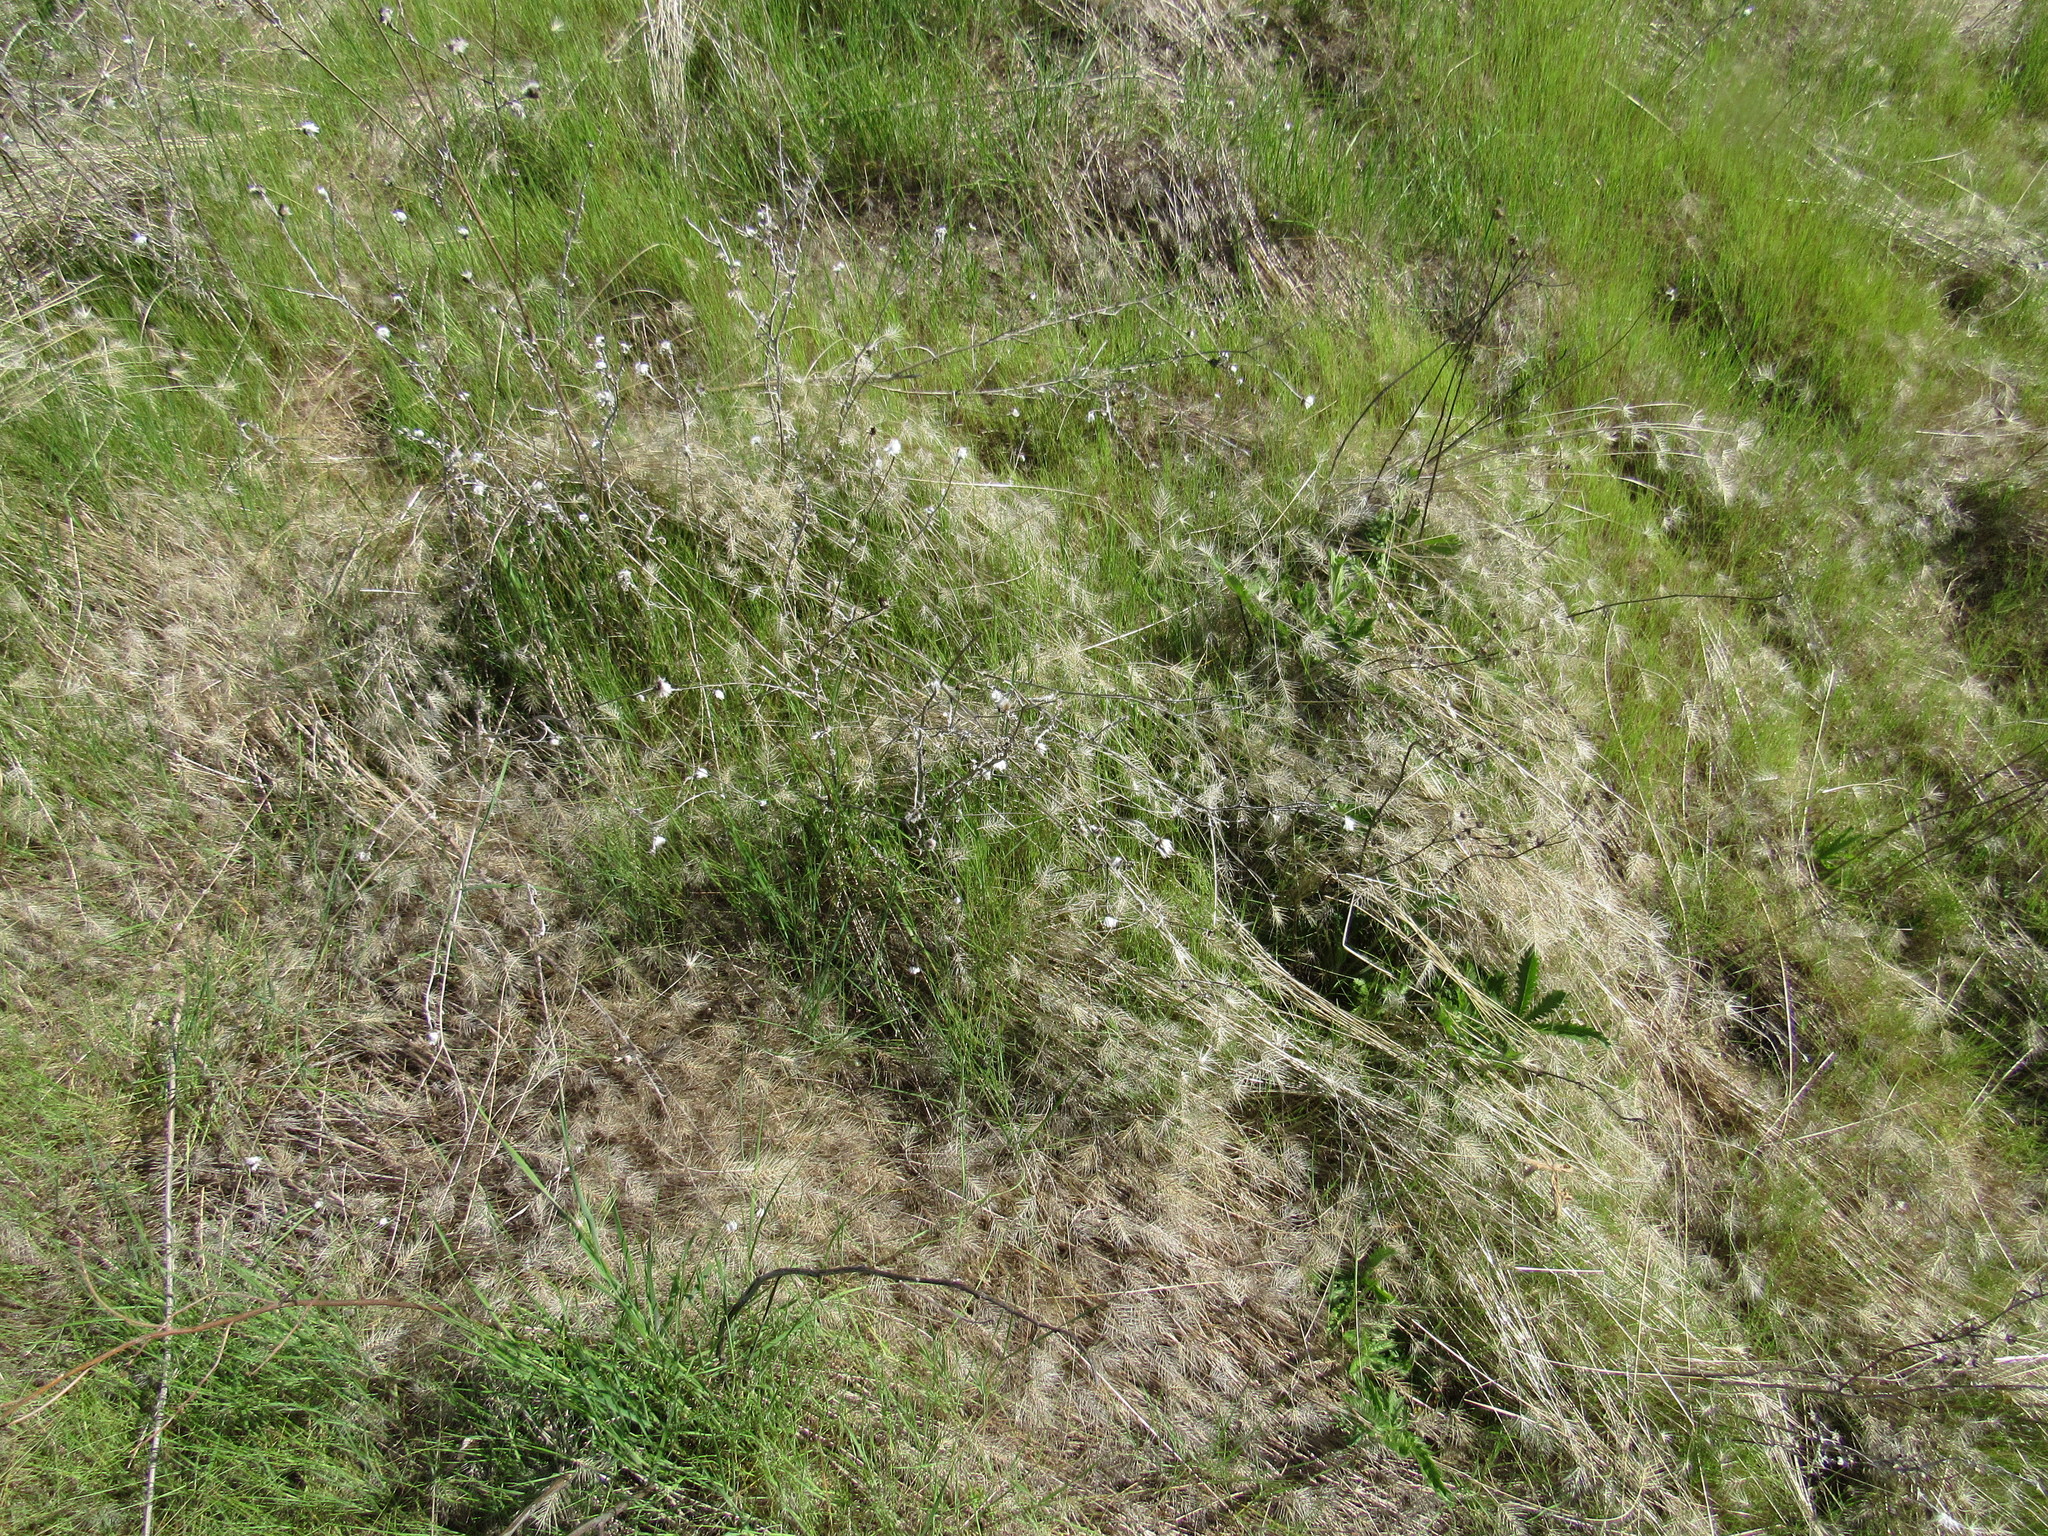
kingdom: Plantae
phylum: Tracheophyta
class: Liliopsida
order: Poales
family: Poaceae
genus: Taeniatherum
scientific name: Taeniatherum caput-medusae
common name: Medusahead
